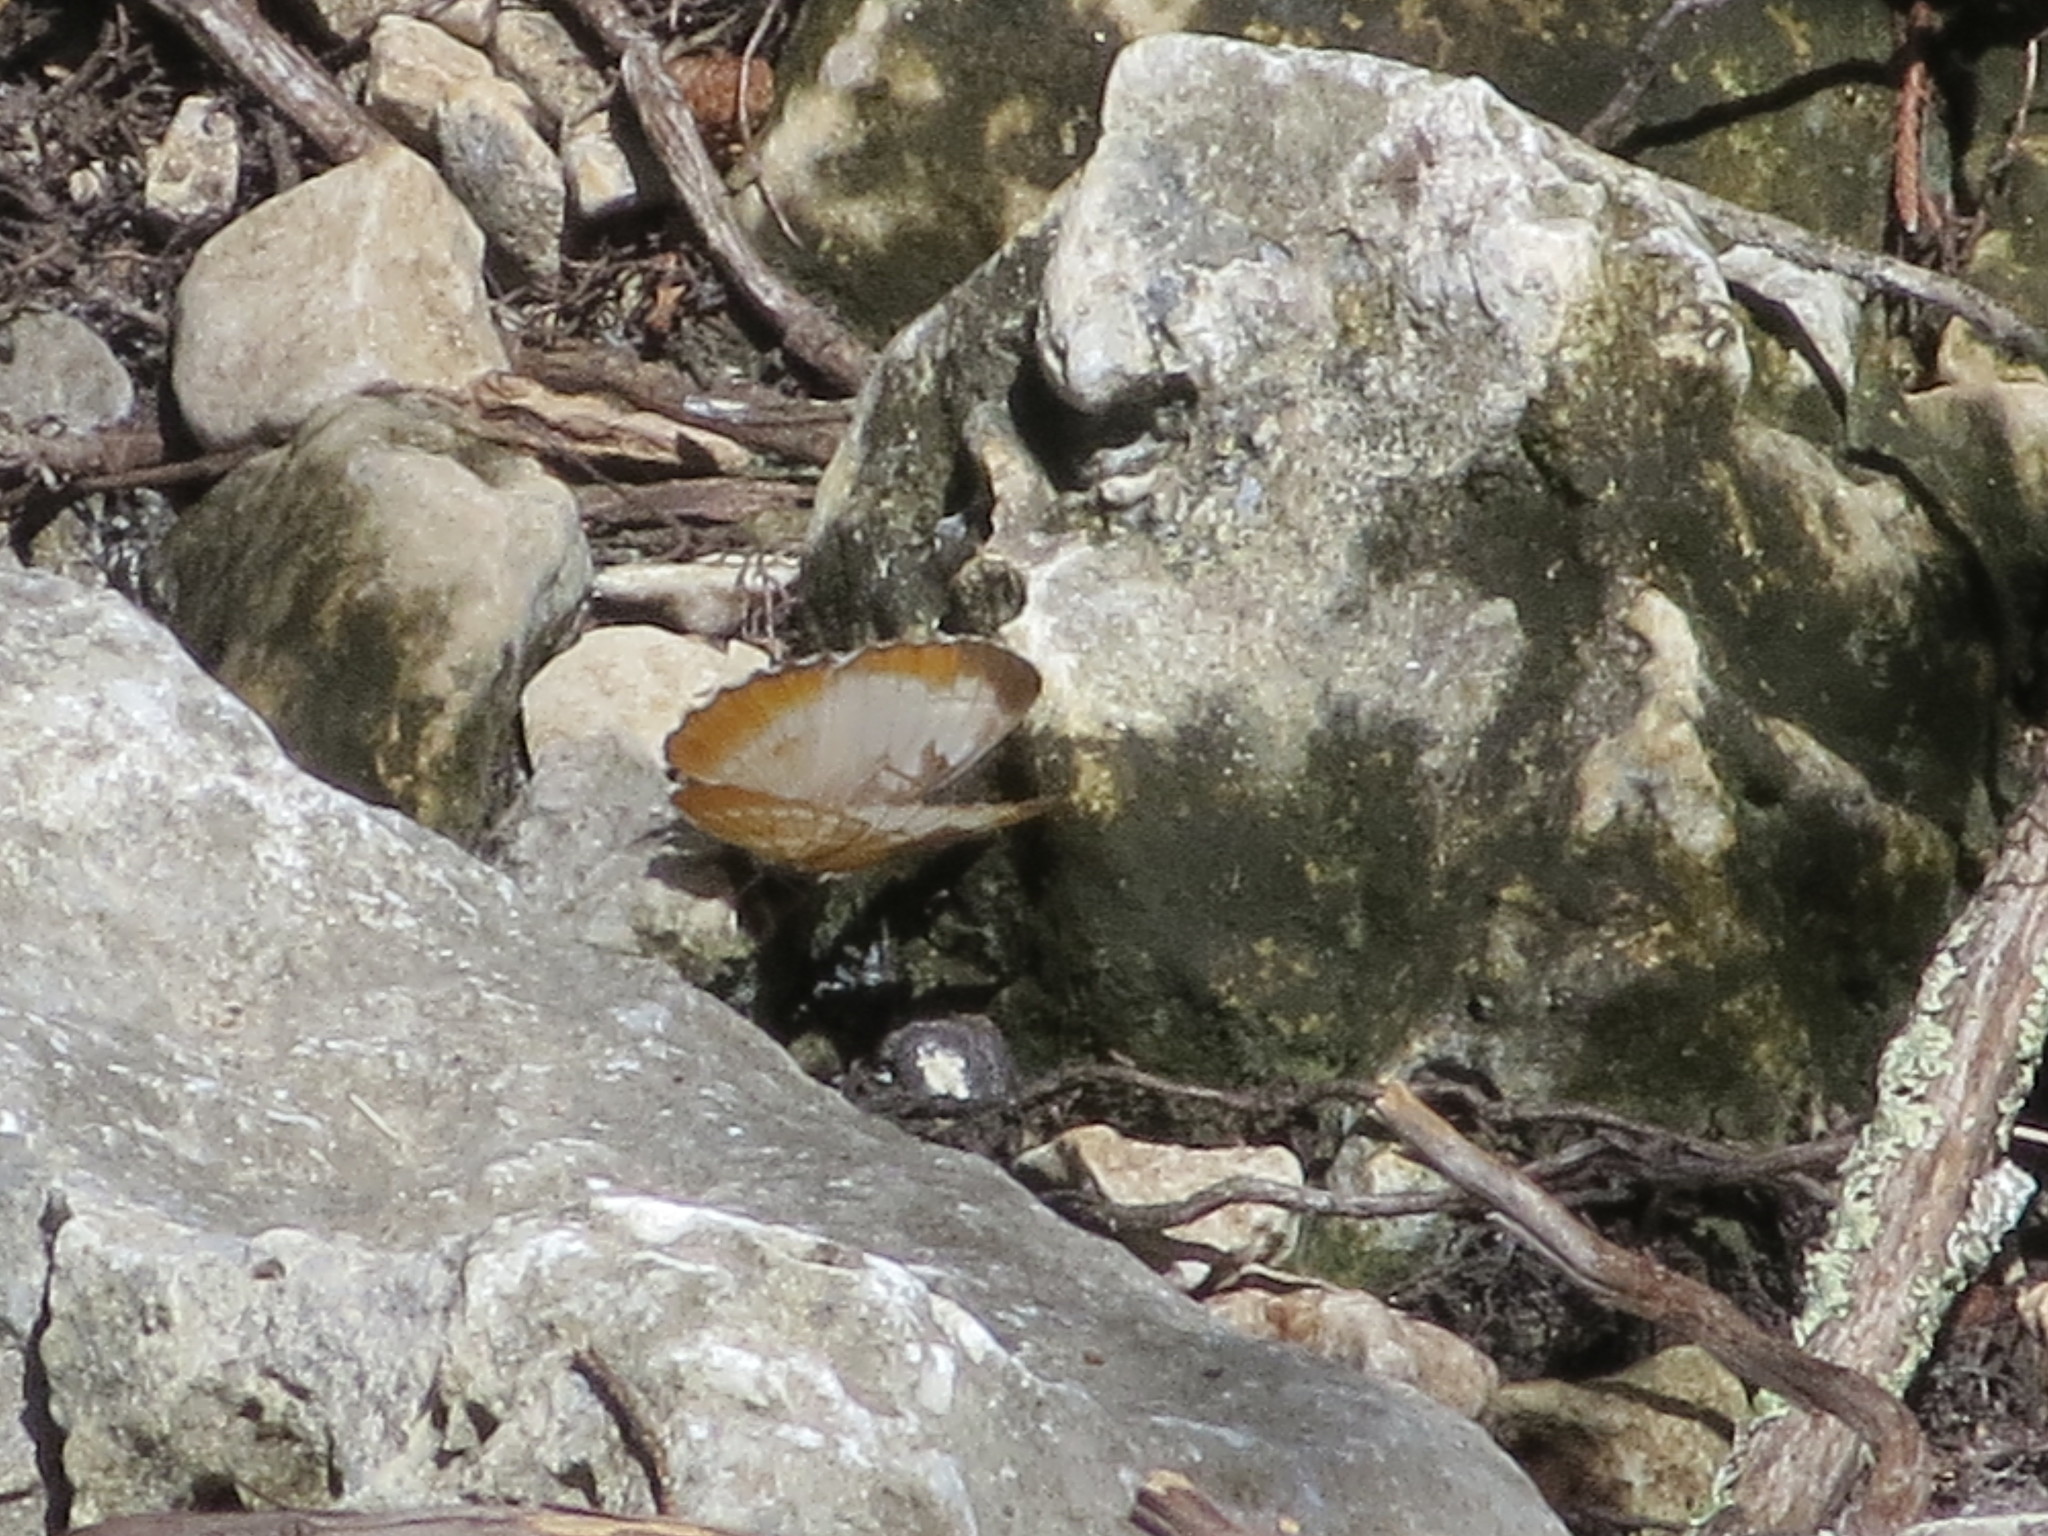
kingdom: Animalia
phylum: Arthropoda
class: Insecta
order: Lepidoptera
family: Nymphalidae
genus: Mestra
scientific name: Mestra amymone
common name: Common mestra
